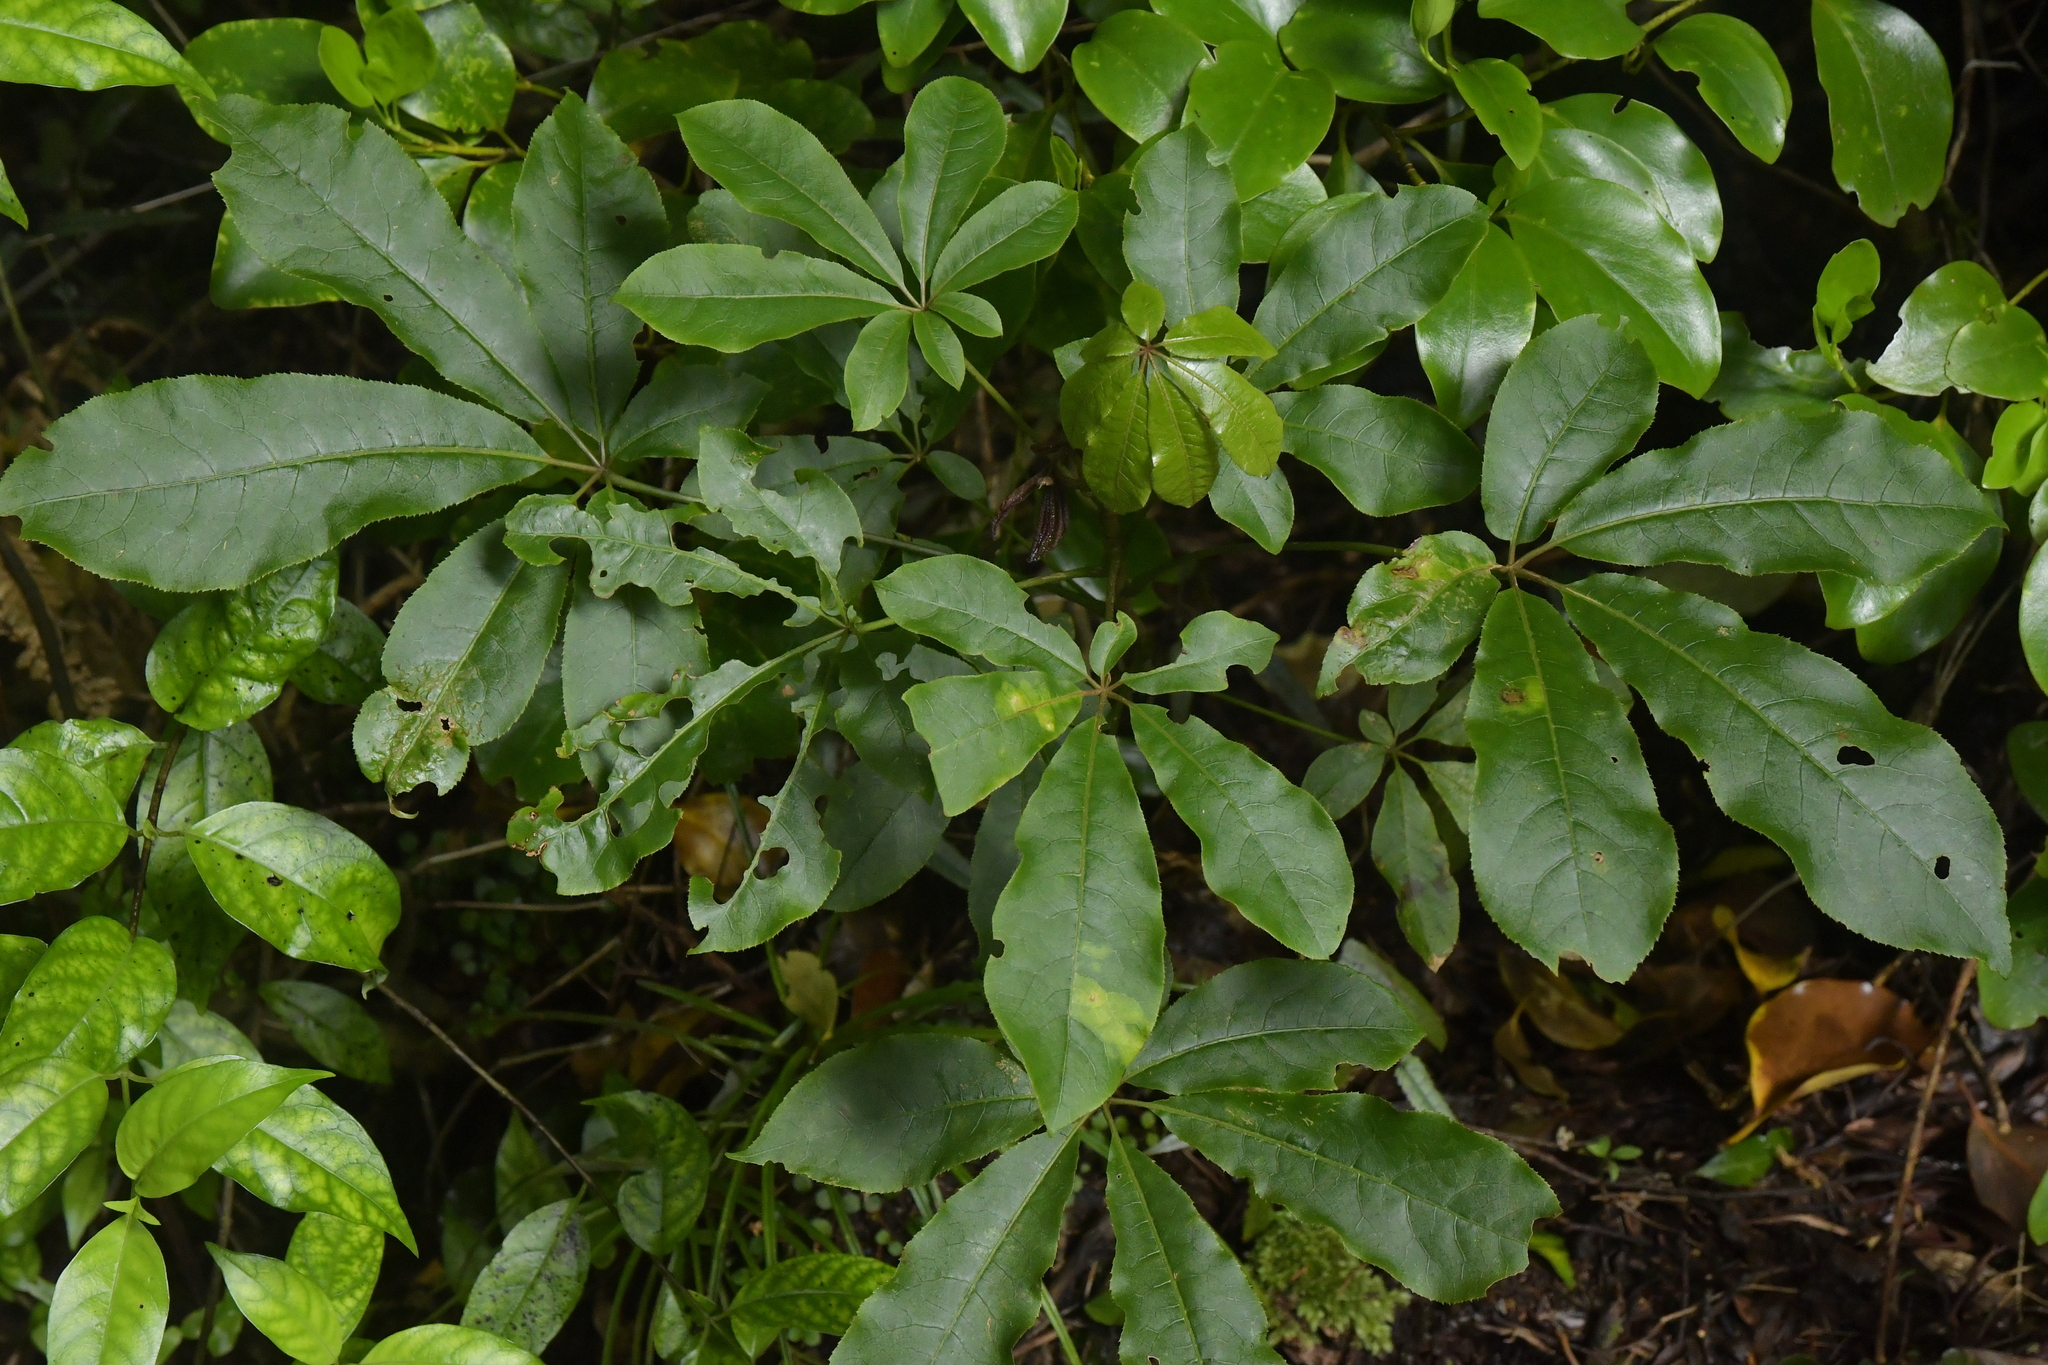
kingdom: Plantae
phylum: Tracheophyta
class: Magnoliopsida
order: Apiales
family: Araliaceae
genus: Schefflera
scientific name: Schefflera digitata
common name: Pate
